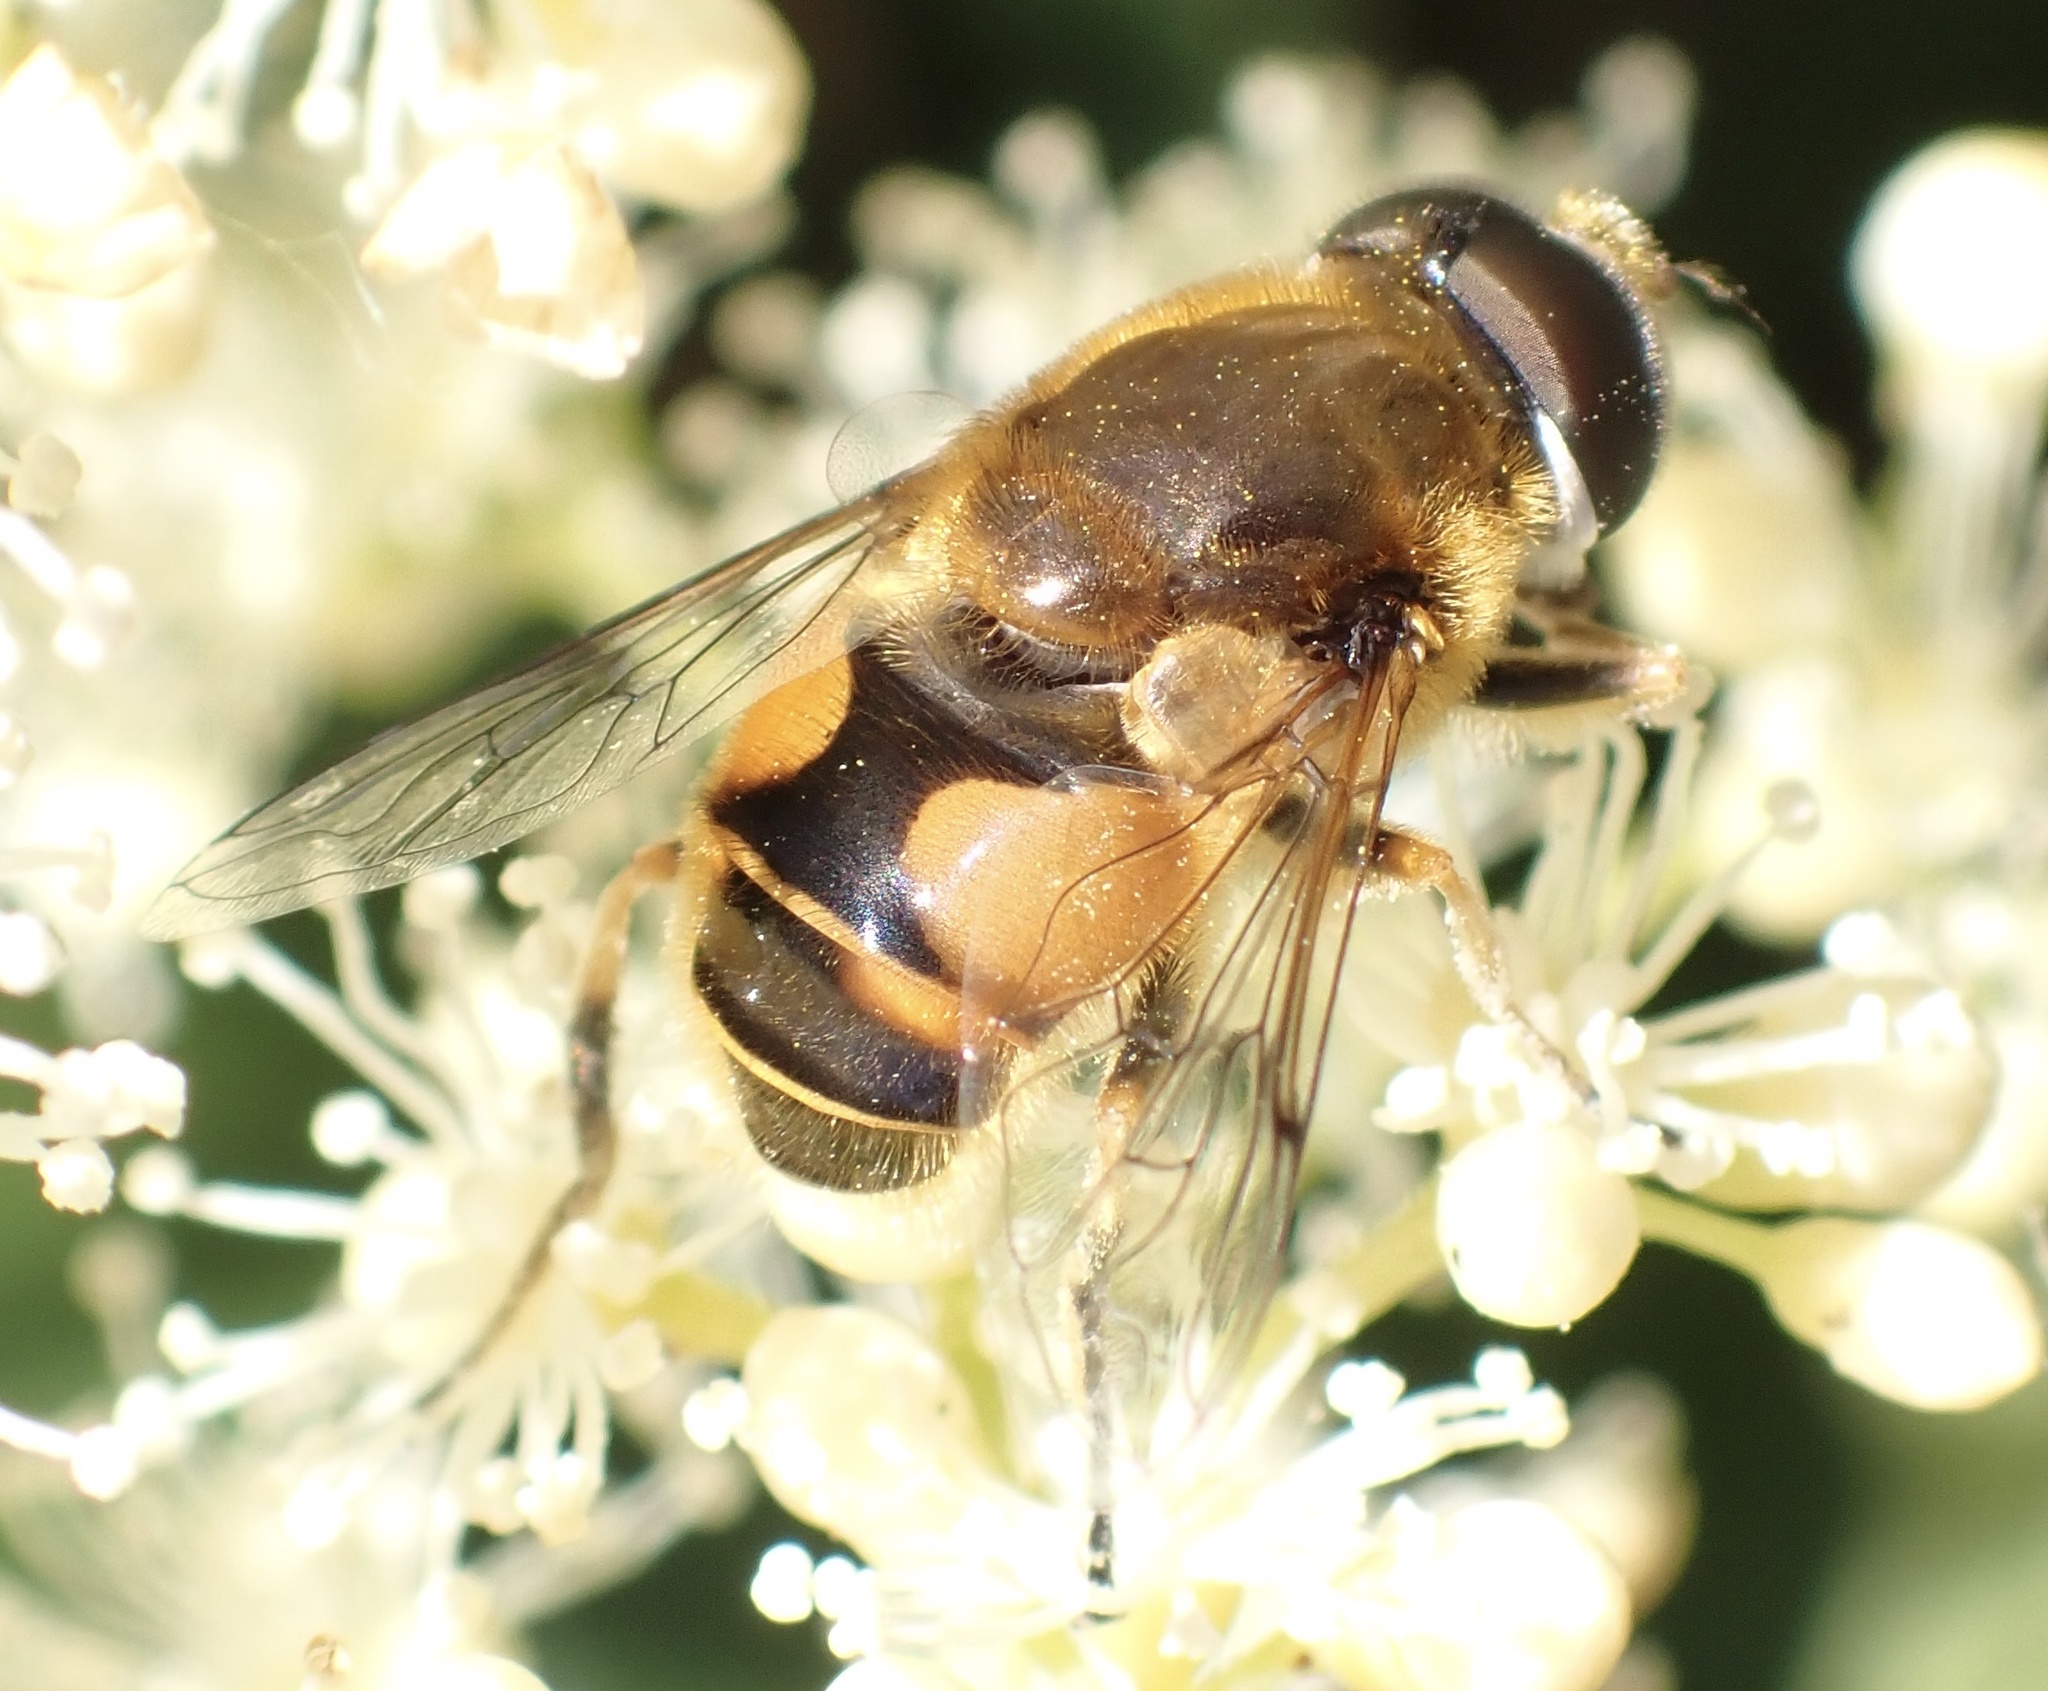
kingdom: Animalia
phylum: Arthropoda
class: Insecta
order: Diptera
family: Syrphidae
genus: Cheilosia
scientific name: Cheilosia morio
